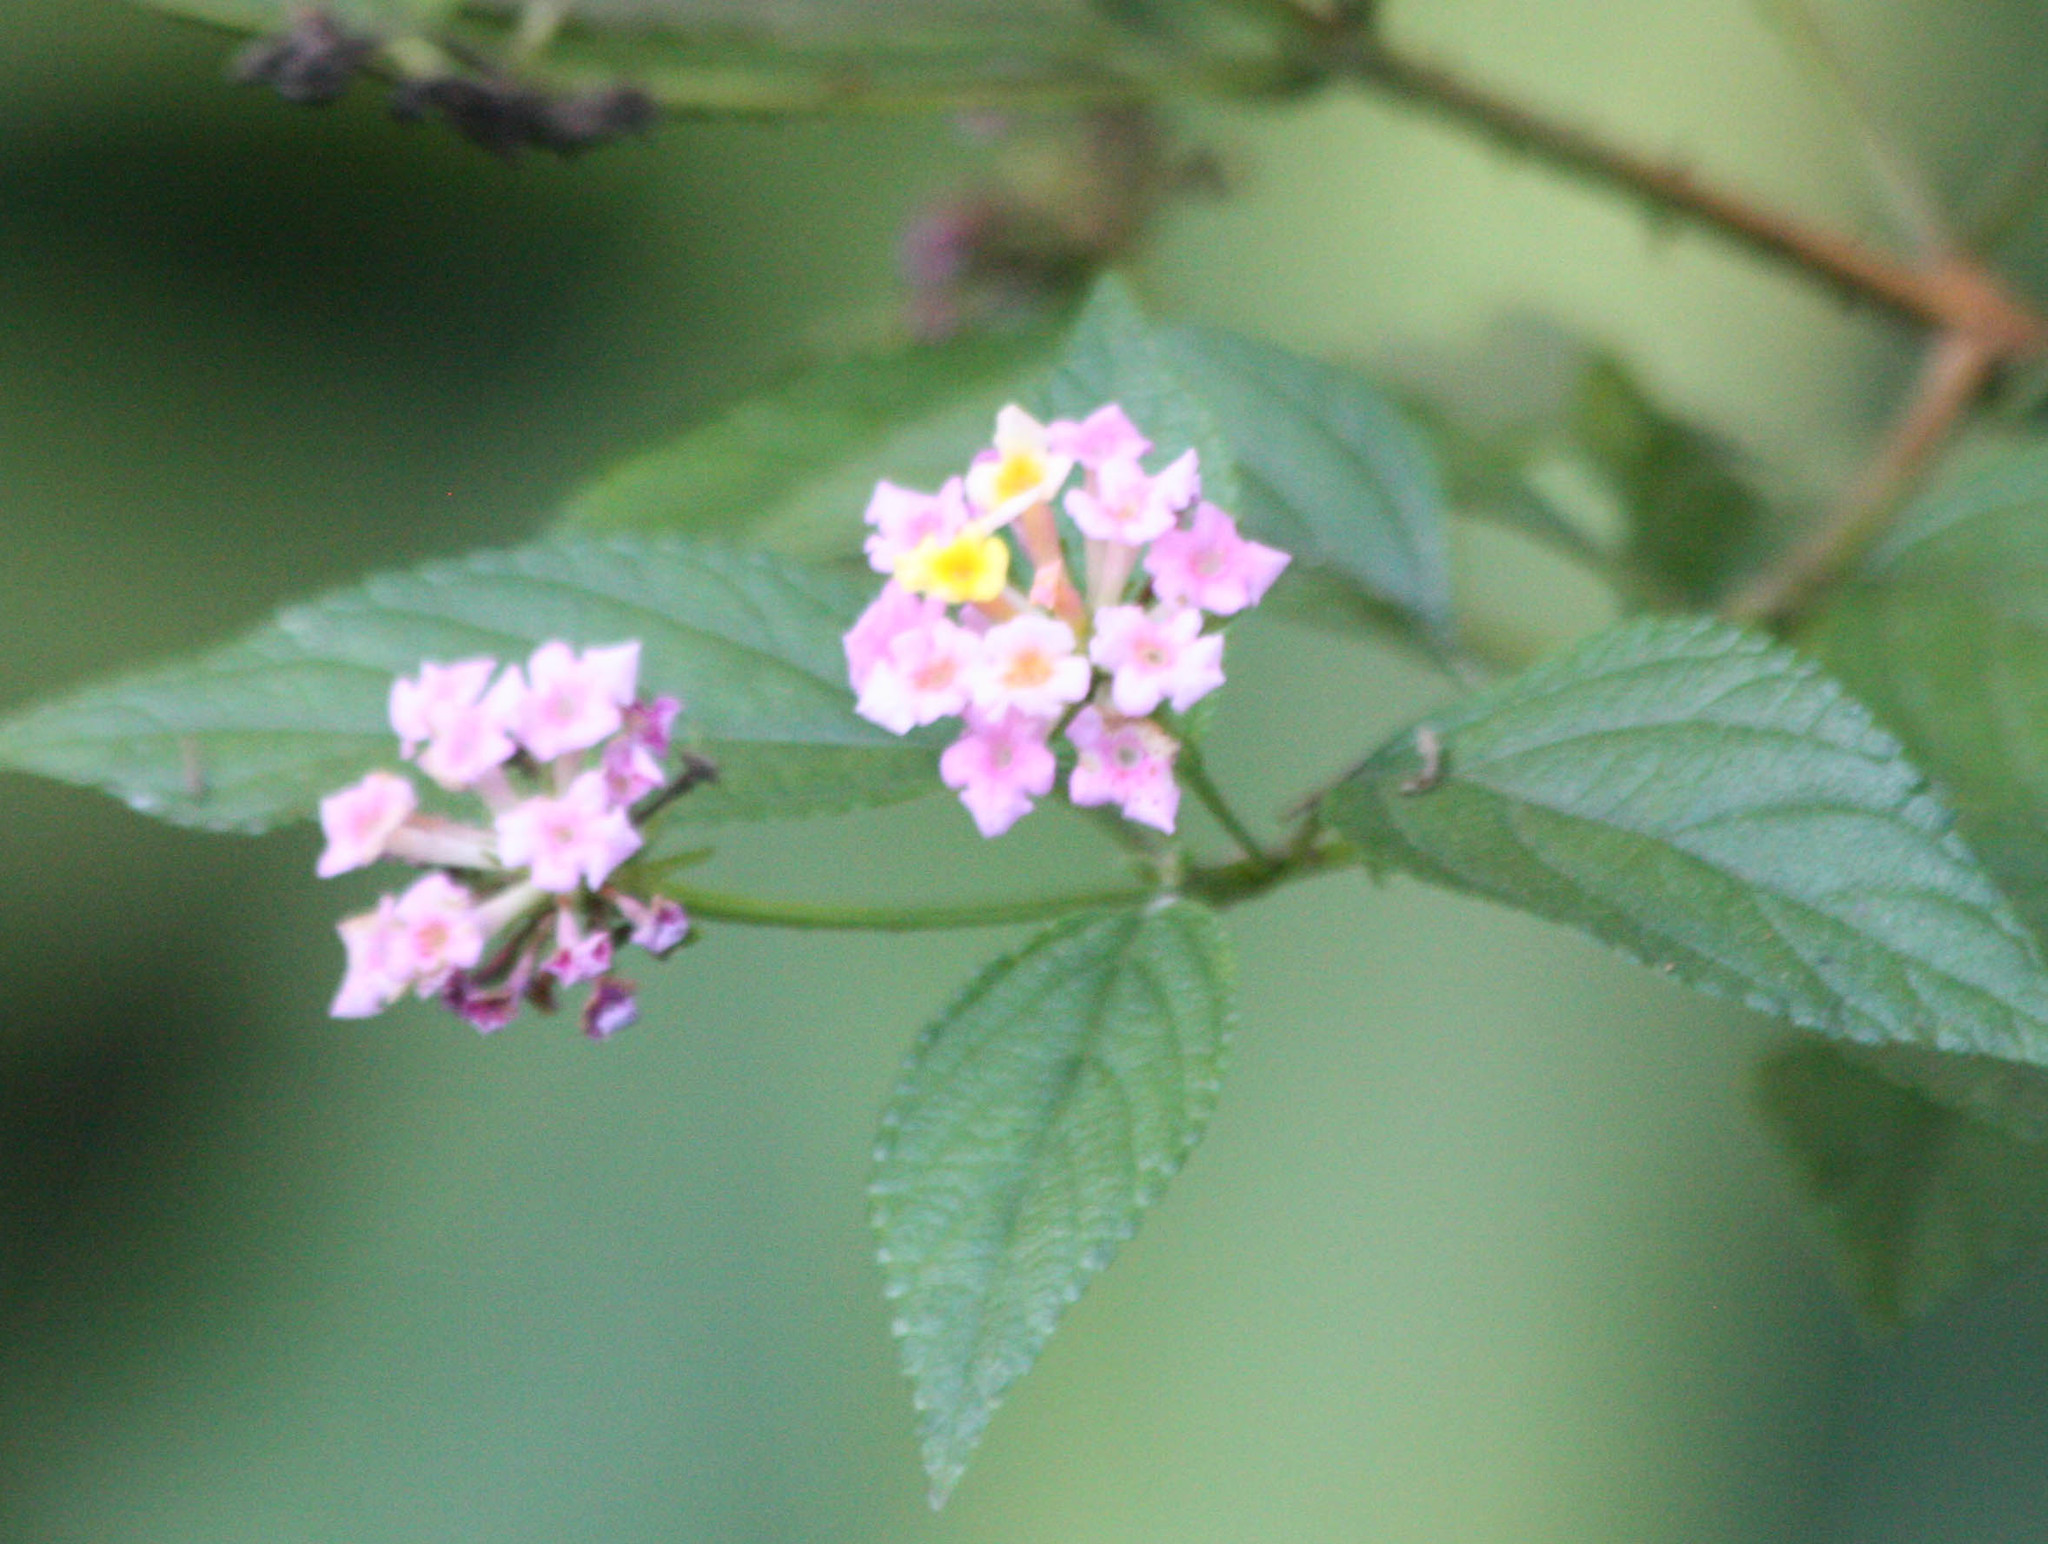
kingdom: Plantae
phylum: Tracheophyta
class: Magnoliopsida
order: Lamiales
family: Verbenaceae
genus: Lantana
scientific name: Lantana camara
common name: Lantana
